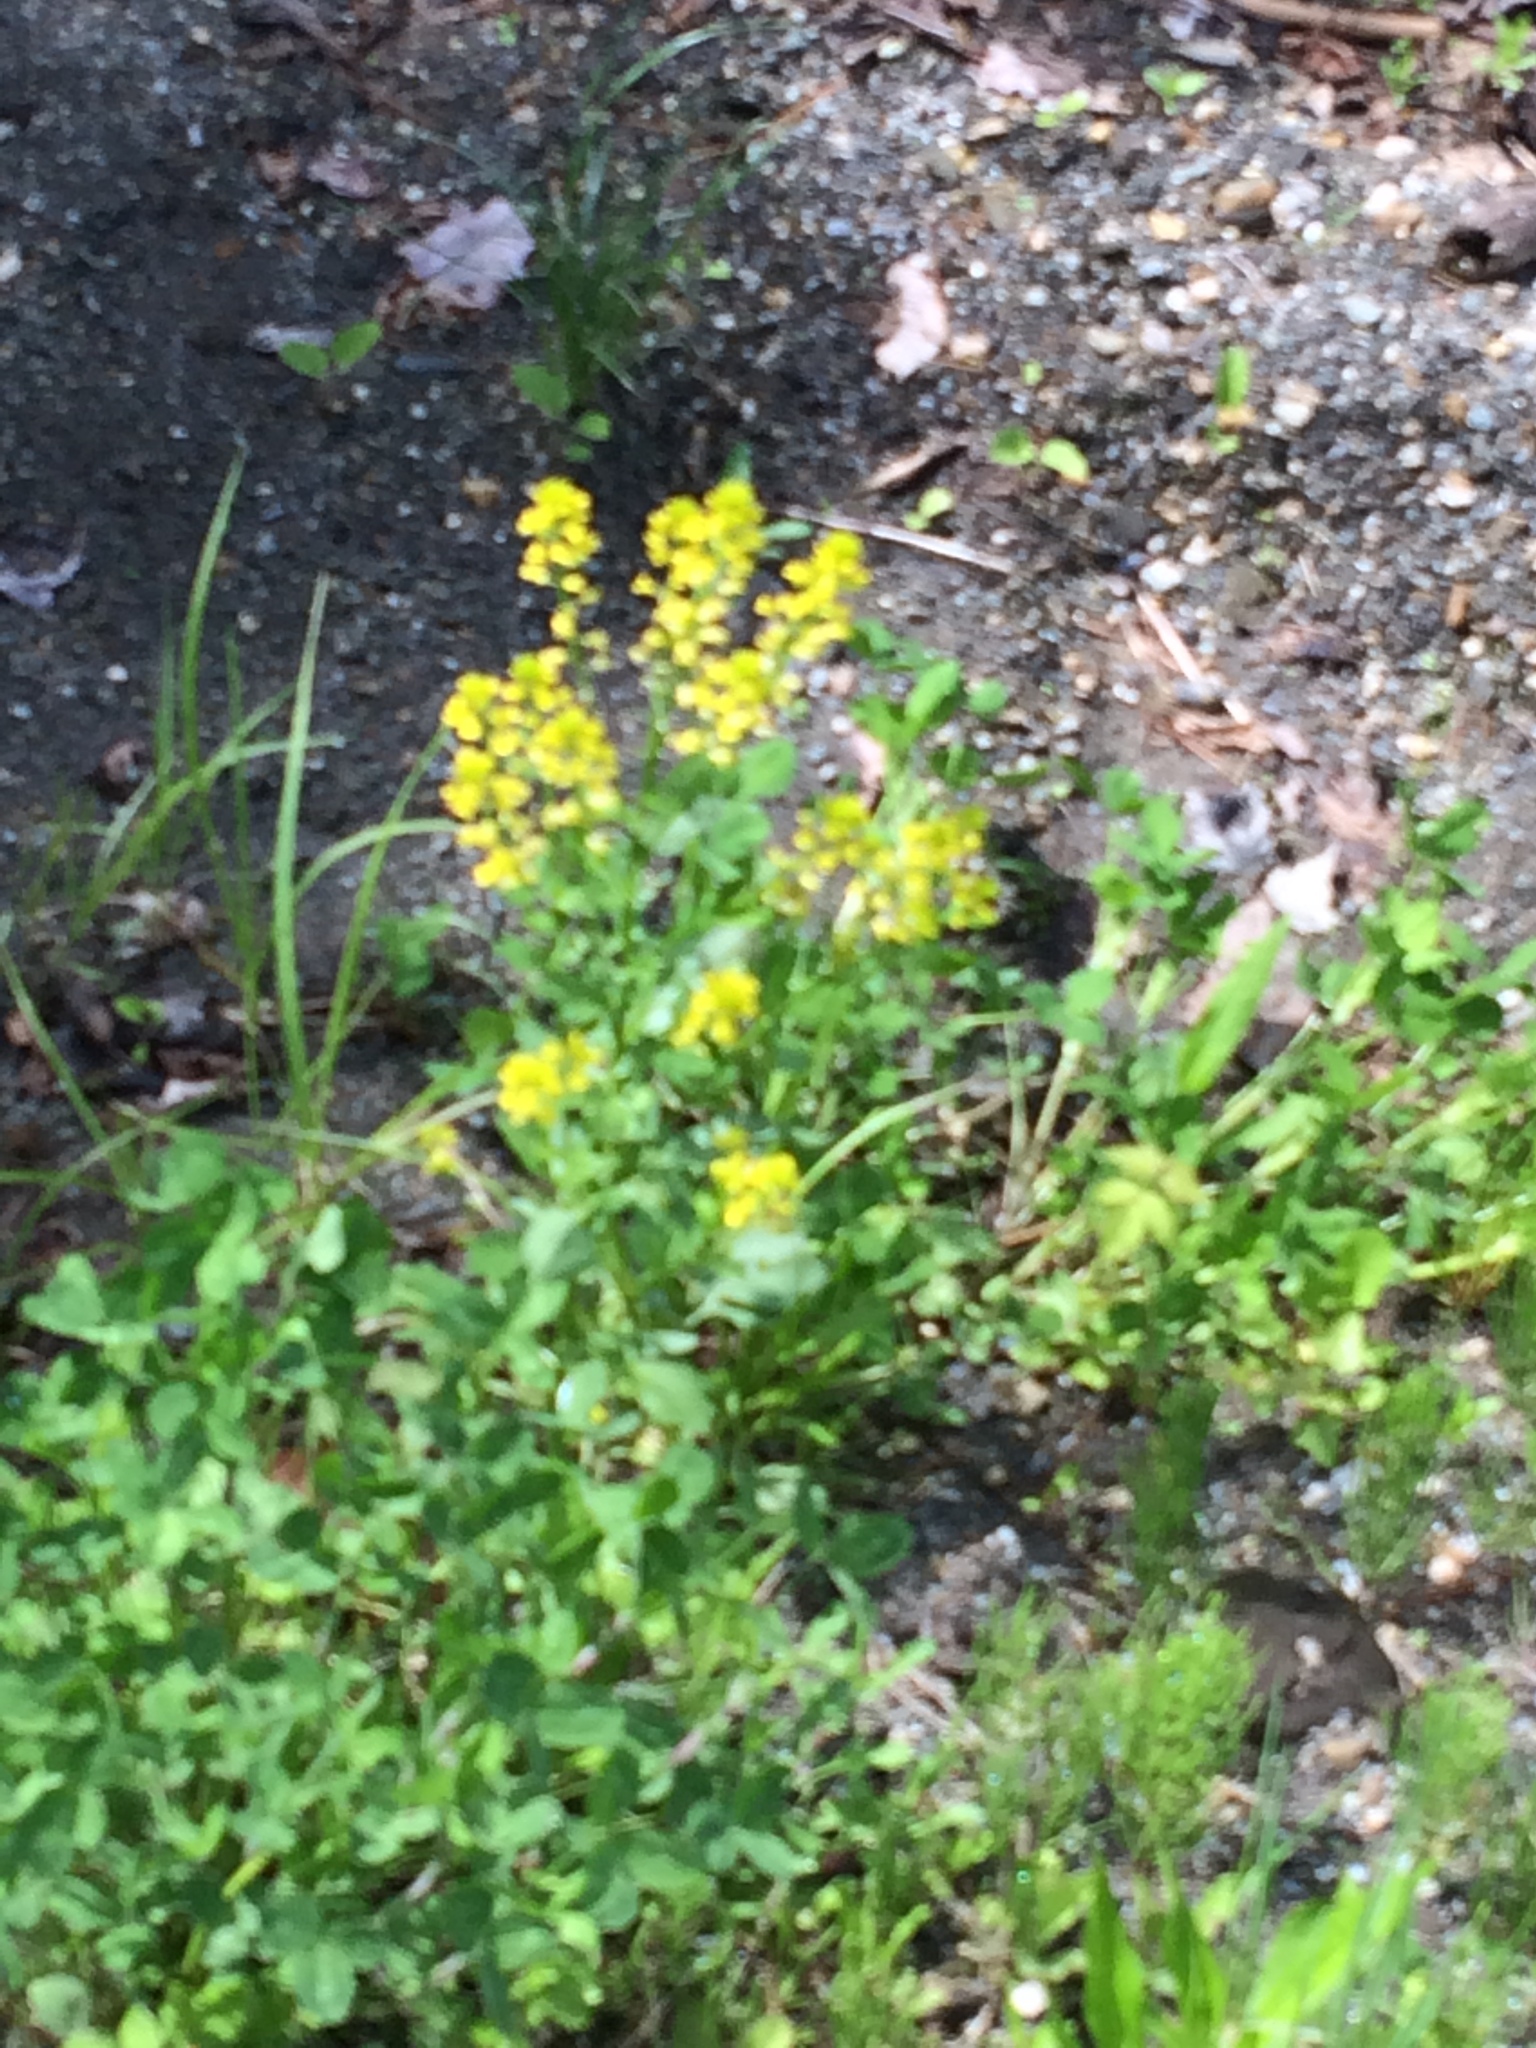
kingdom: Plantae
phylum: Tracheophyta
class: Magnoliopsida
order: Brassicales
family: Brassicaceae
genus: Barbarea
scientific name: Barbarea vulgaris
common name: Cressy-greens
